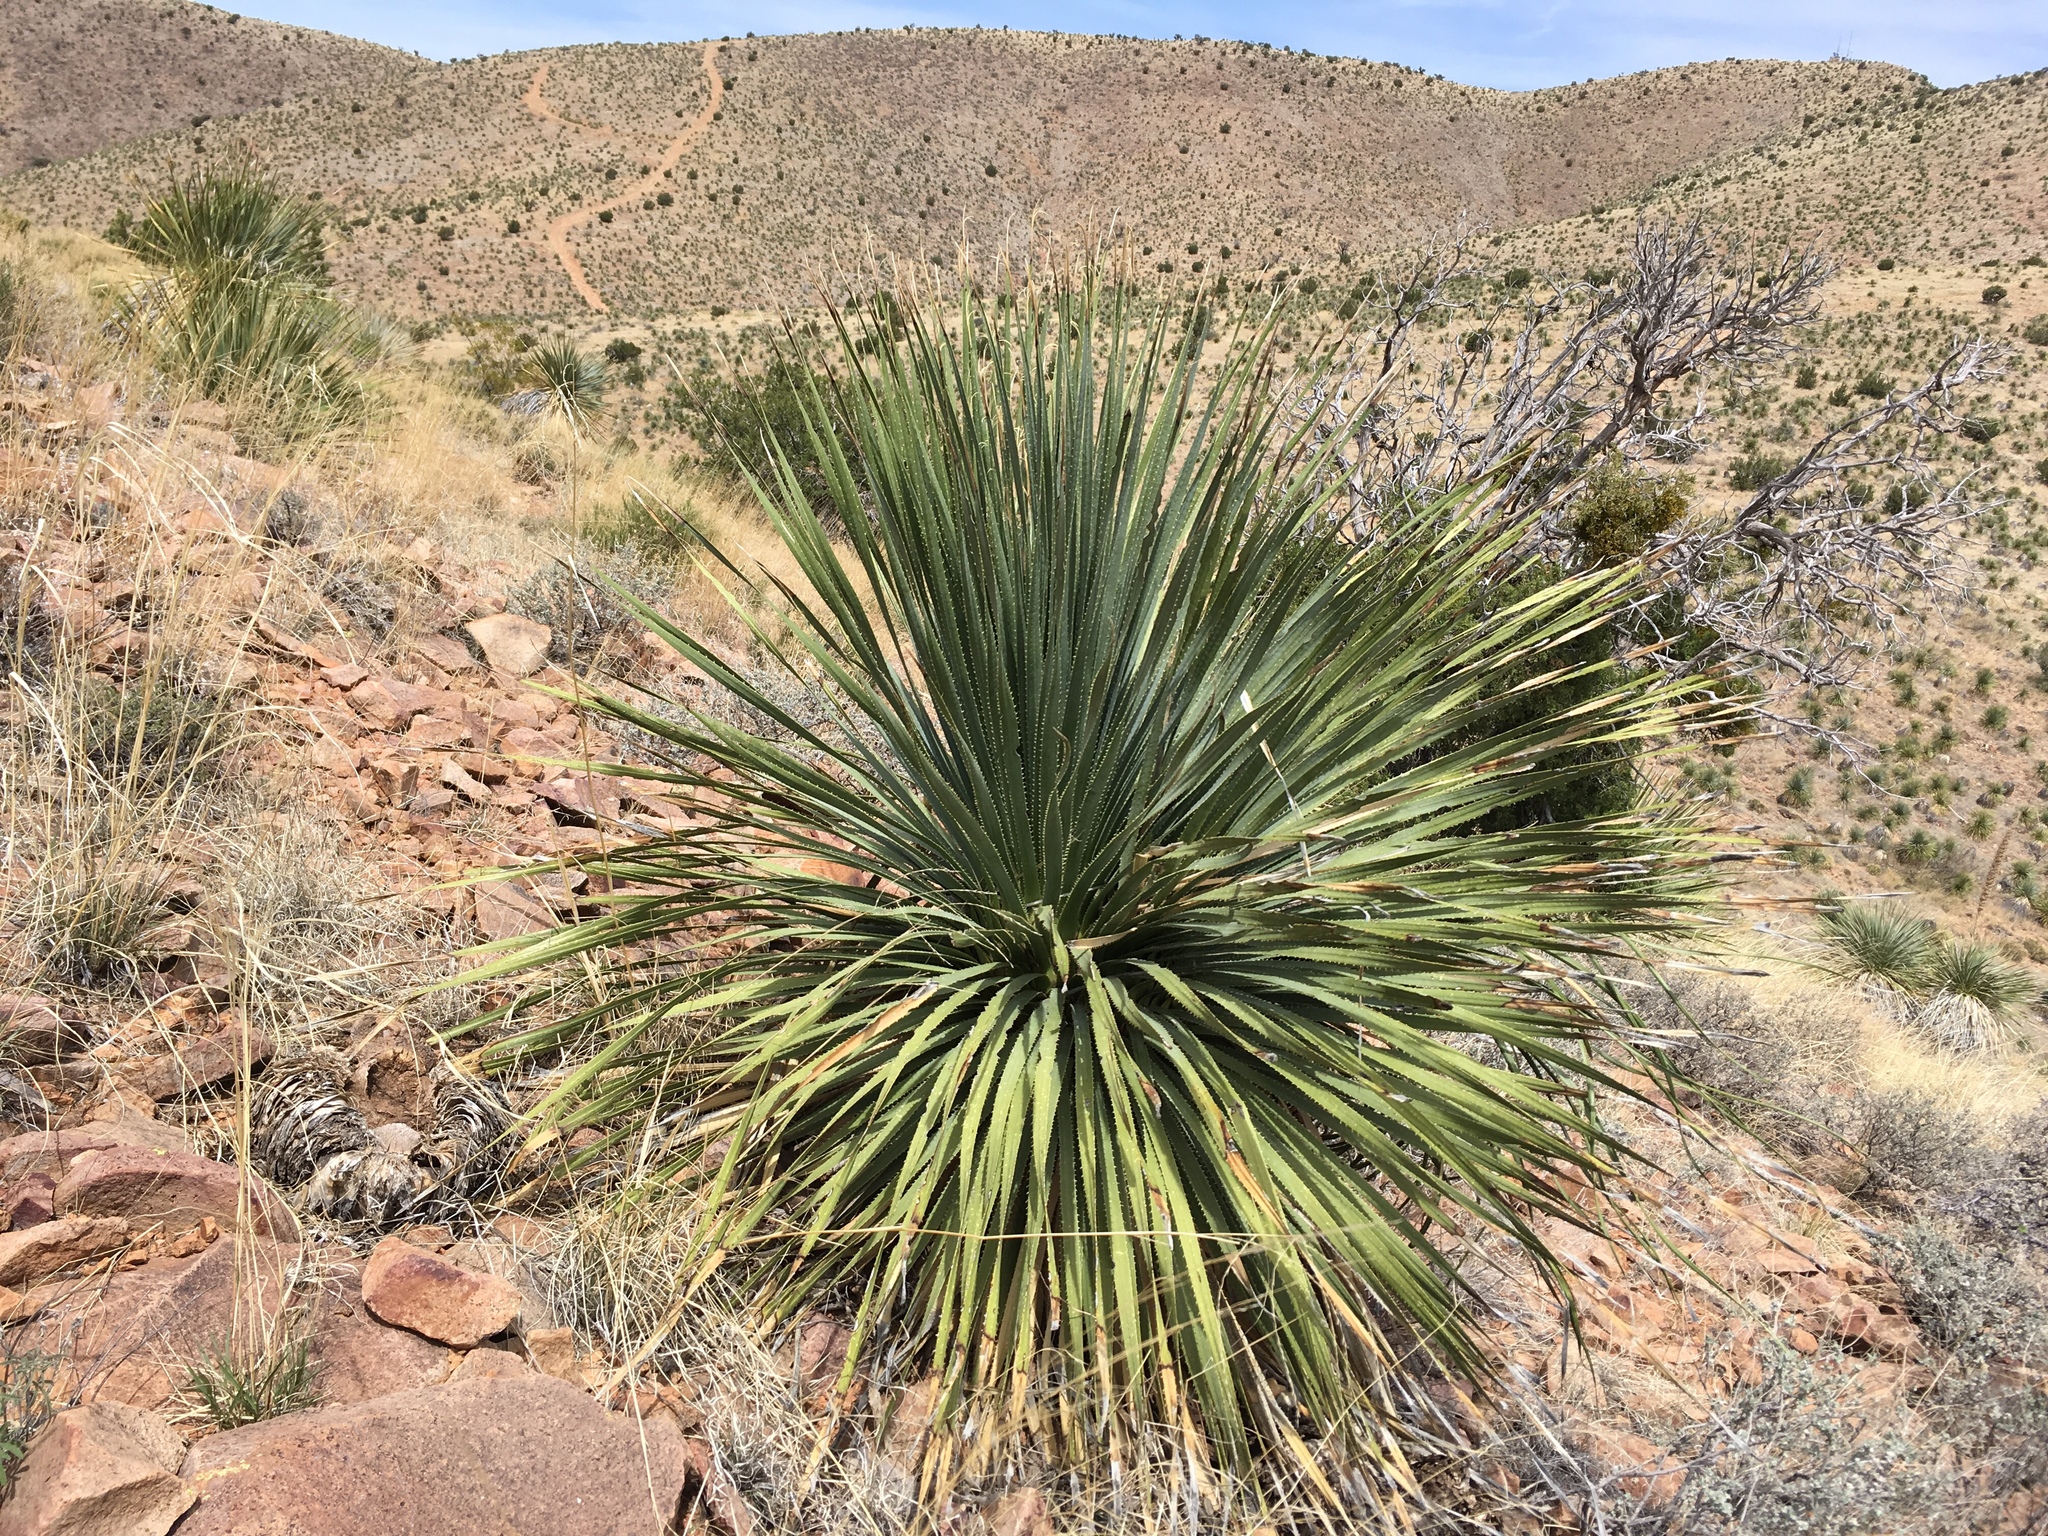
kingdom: Plantae
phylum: Tracheophyta
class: Liliopsida
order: Asparagales
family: Asparagaceae
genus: Dasylirion
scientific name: Dasylirion wheeleri
